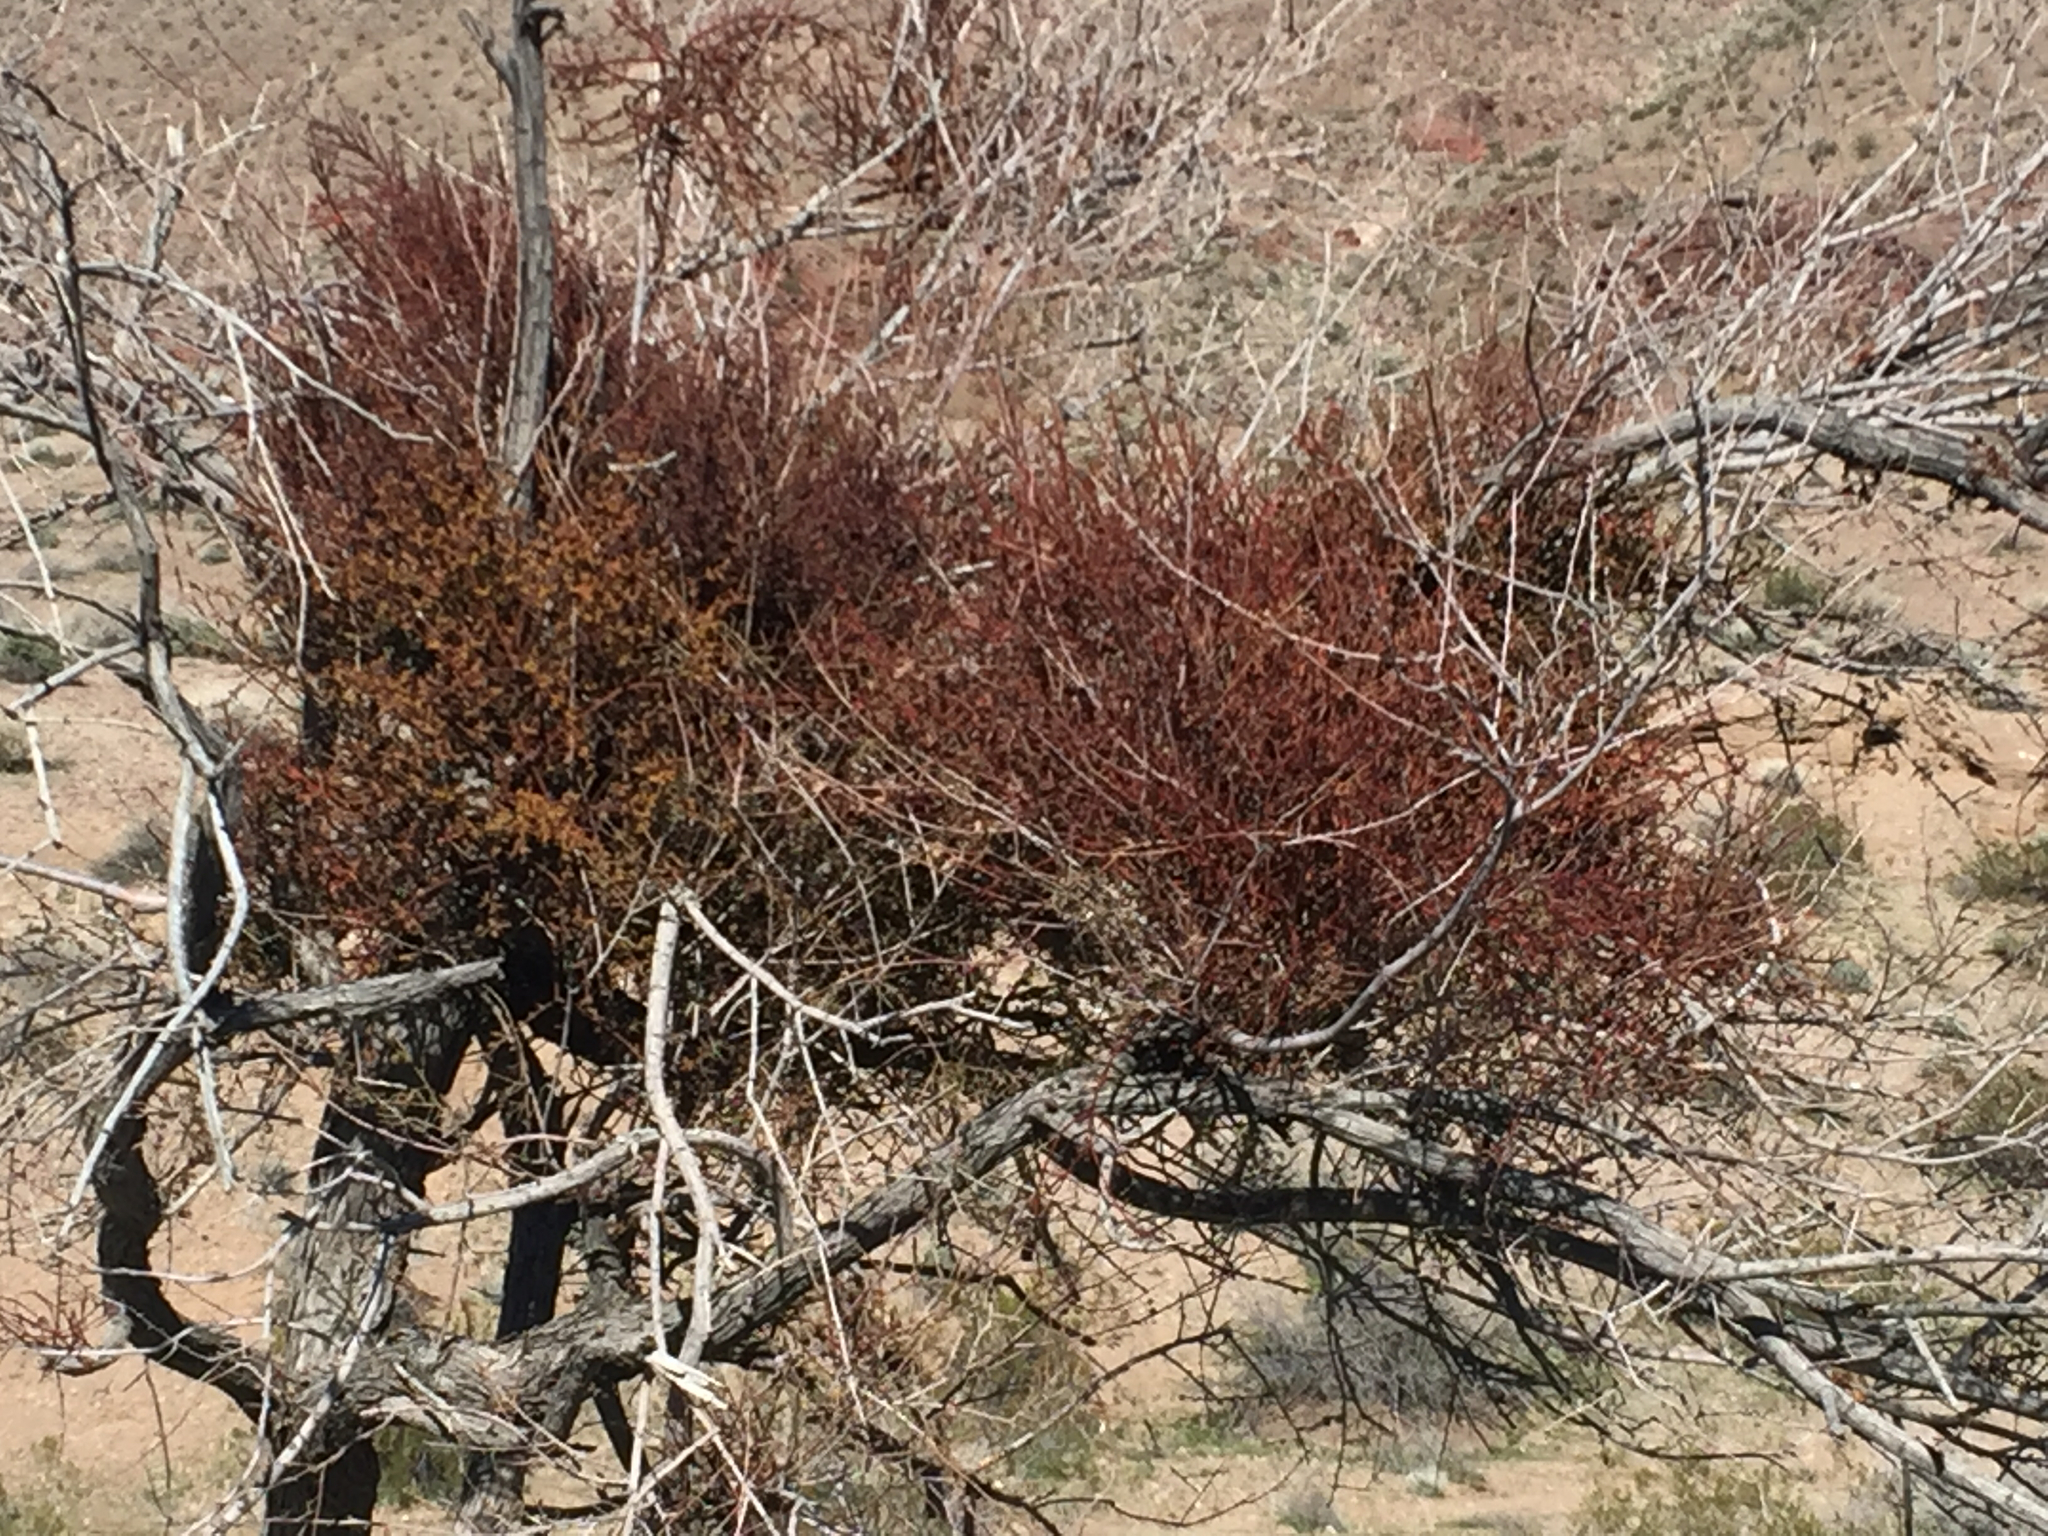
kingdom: Plantae
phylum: Tracheophyta
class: Magnoliopsida
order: Santalales
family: Viscaceae
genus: Phoradendron
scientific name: Phoradendron californicum
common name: Acacia mistletoe
